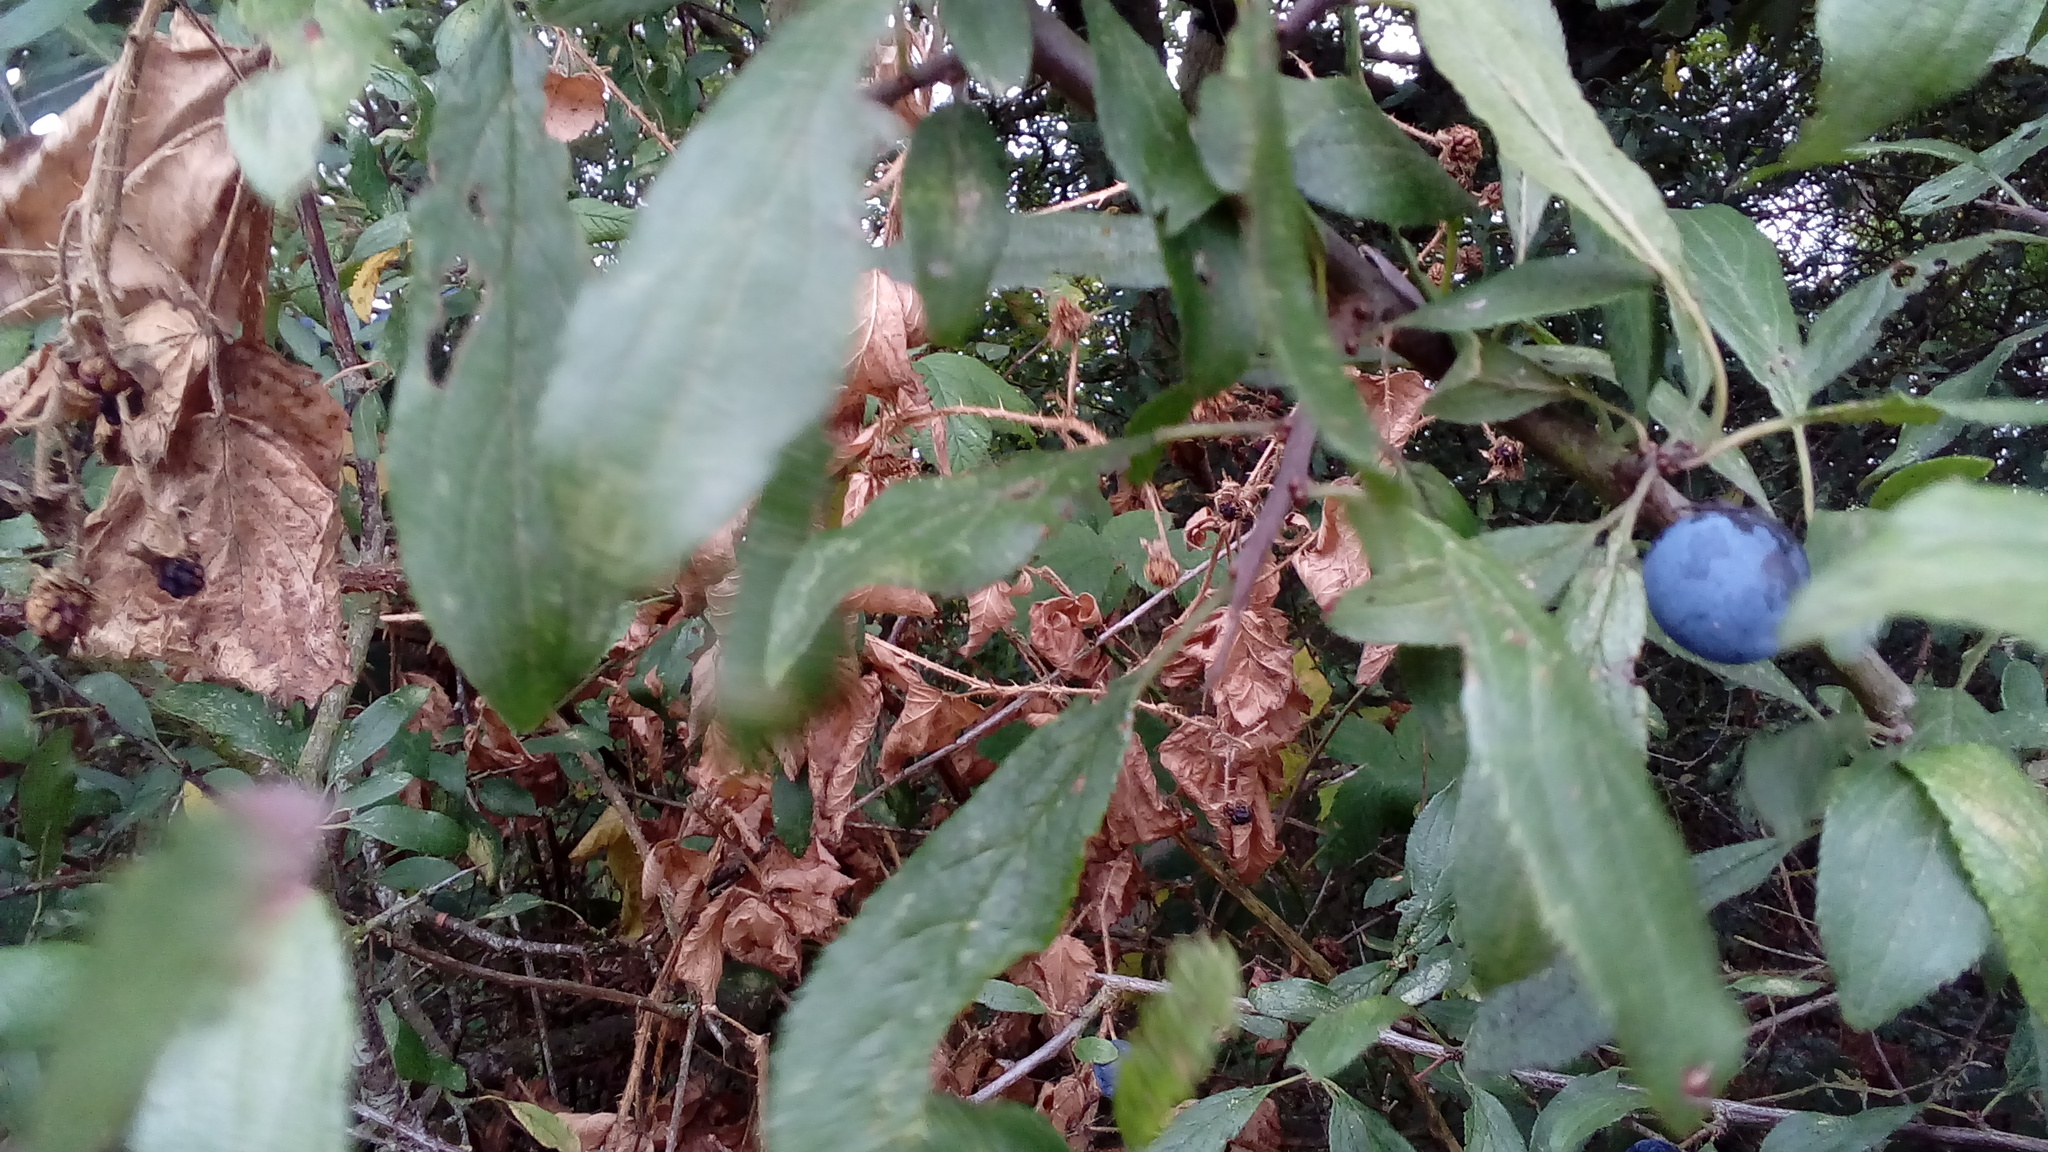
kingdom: Plantae
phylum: Tracheophyta
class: Magnoliopsida
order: Rosales
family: Rosaceae
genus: Prunus
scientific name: Prunus spinosa
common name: Blackthorn
